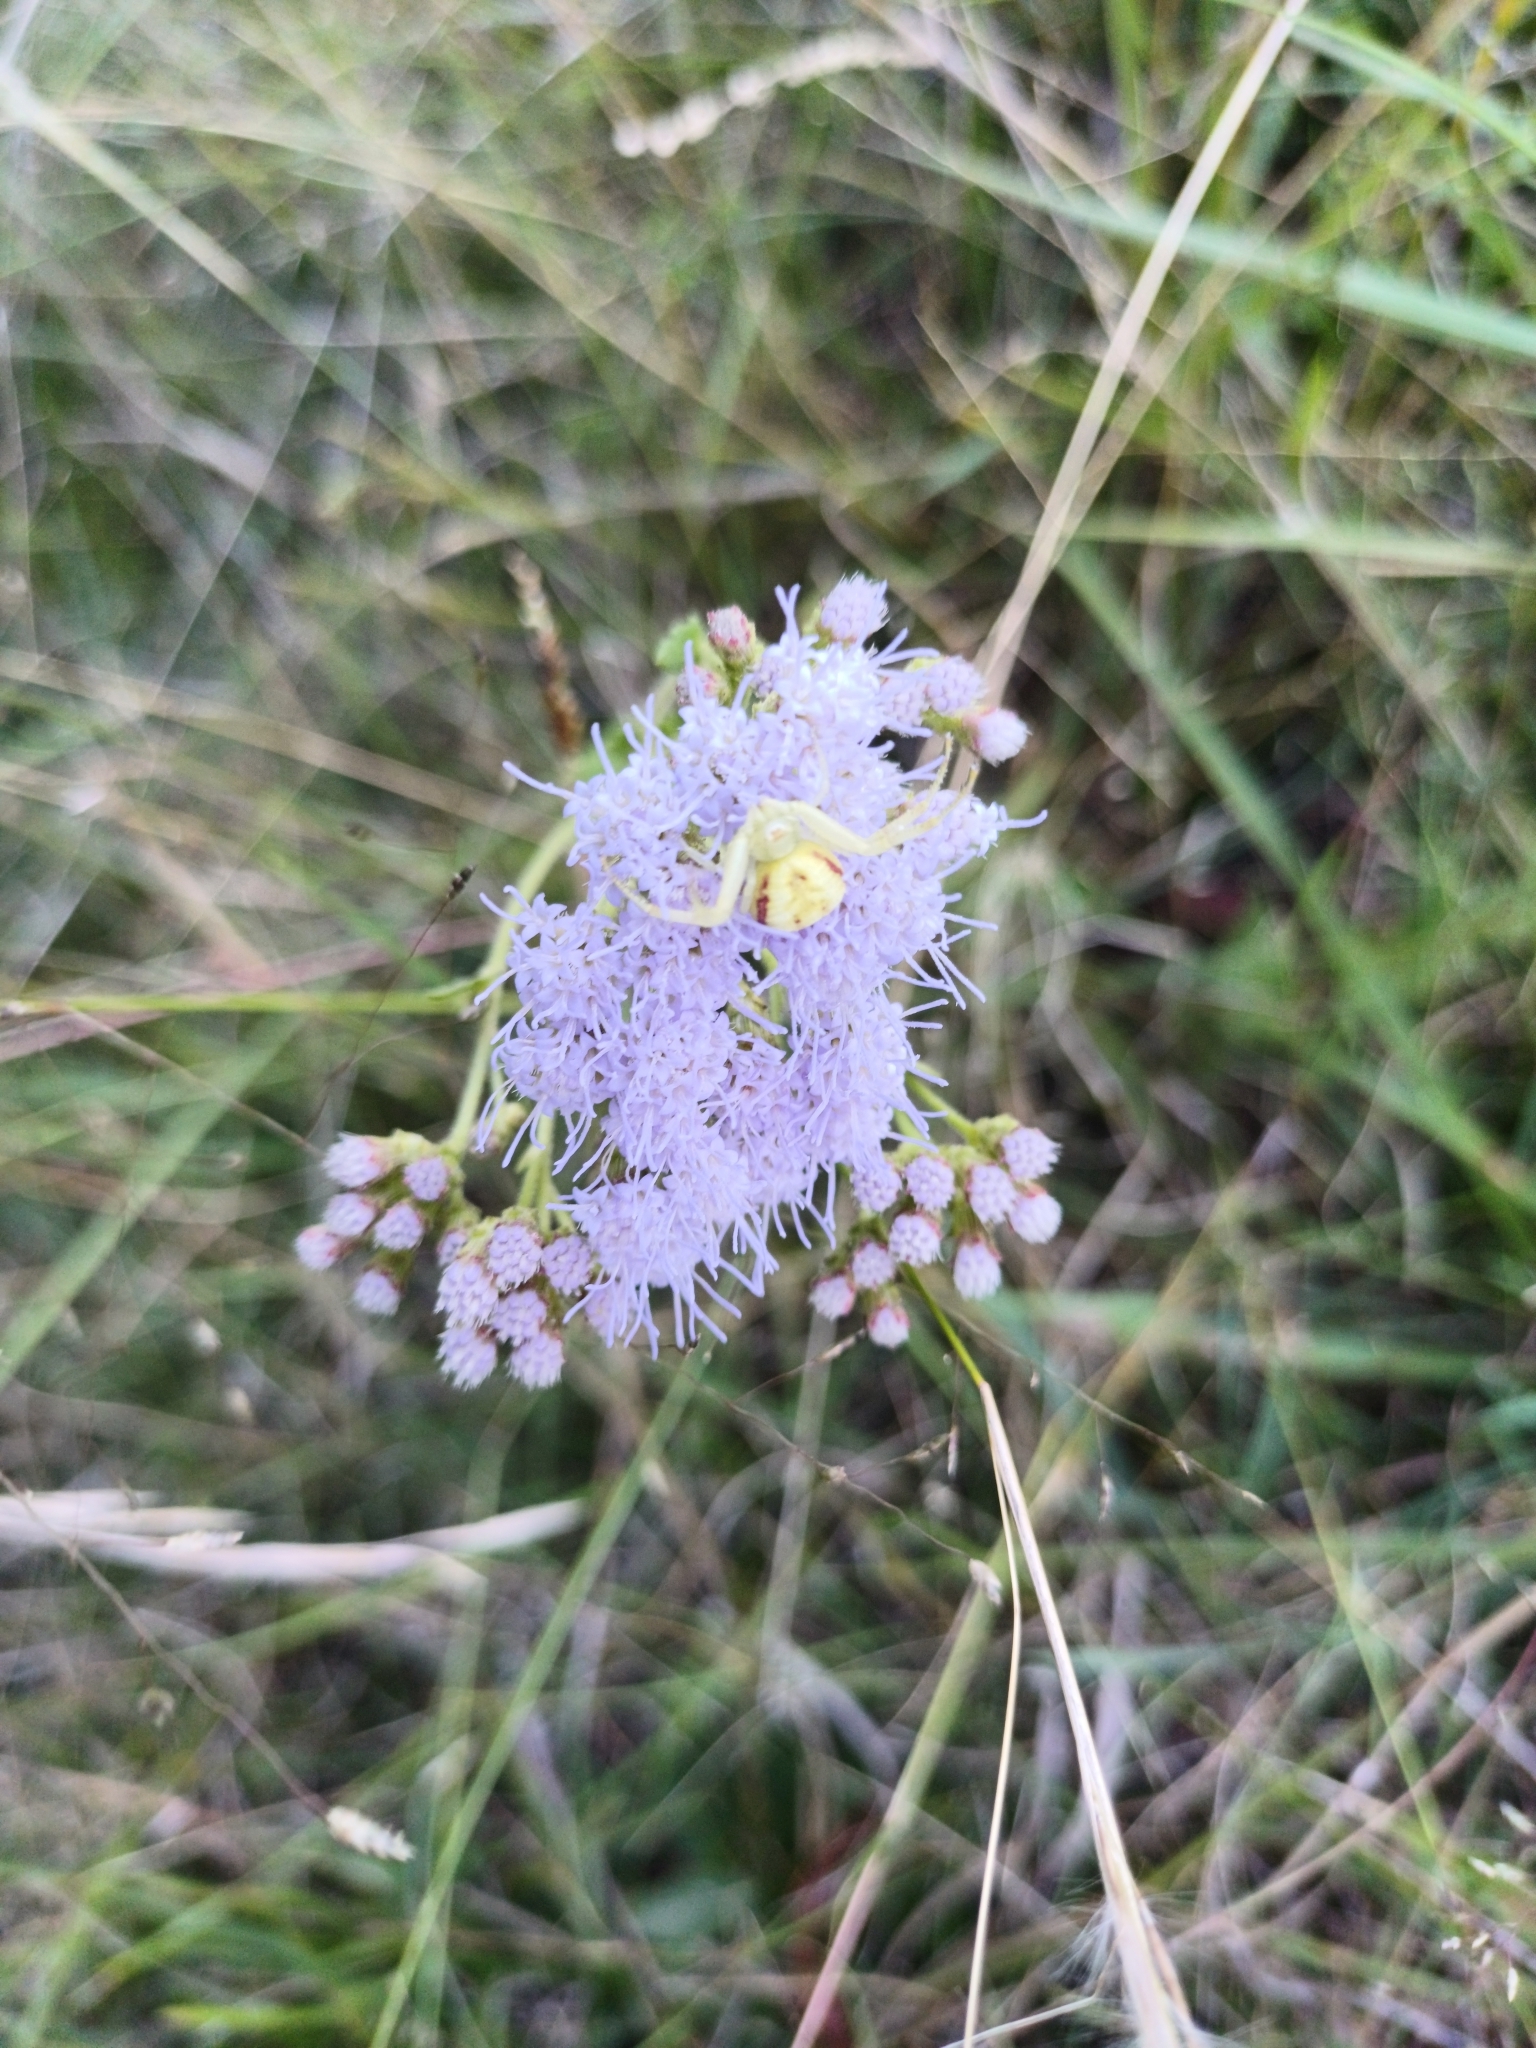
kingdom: Plantae
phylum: Tracheophyta
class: Magnoliopsida
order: Asterales
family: Asteraceae
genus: Chromolaena
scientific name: Chromolaena hirsuta
